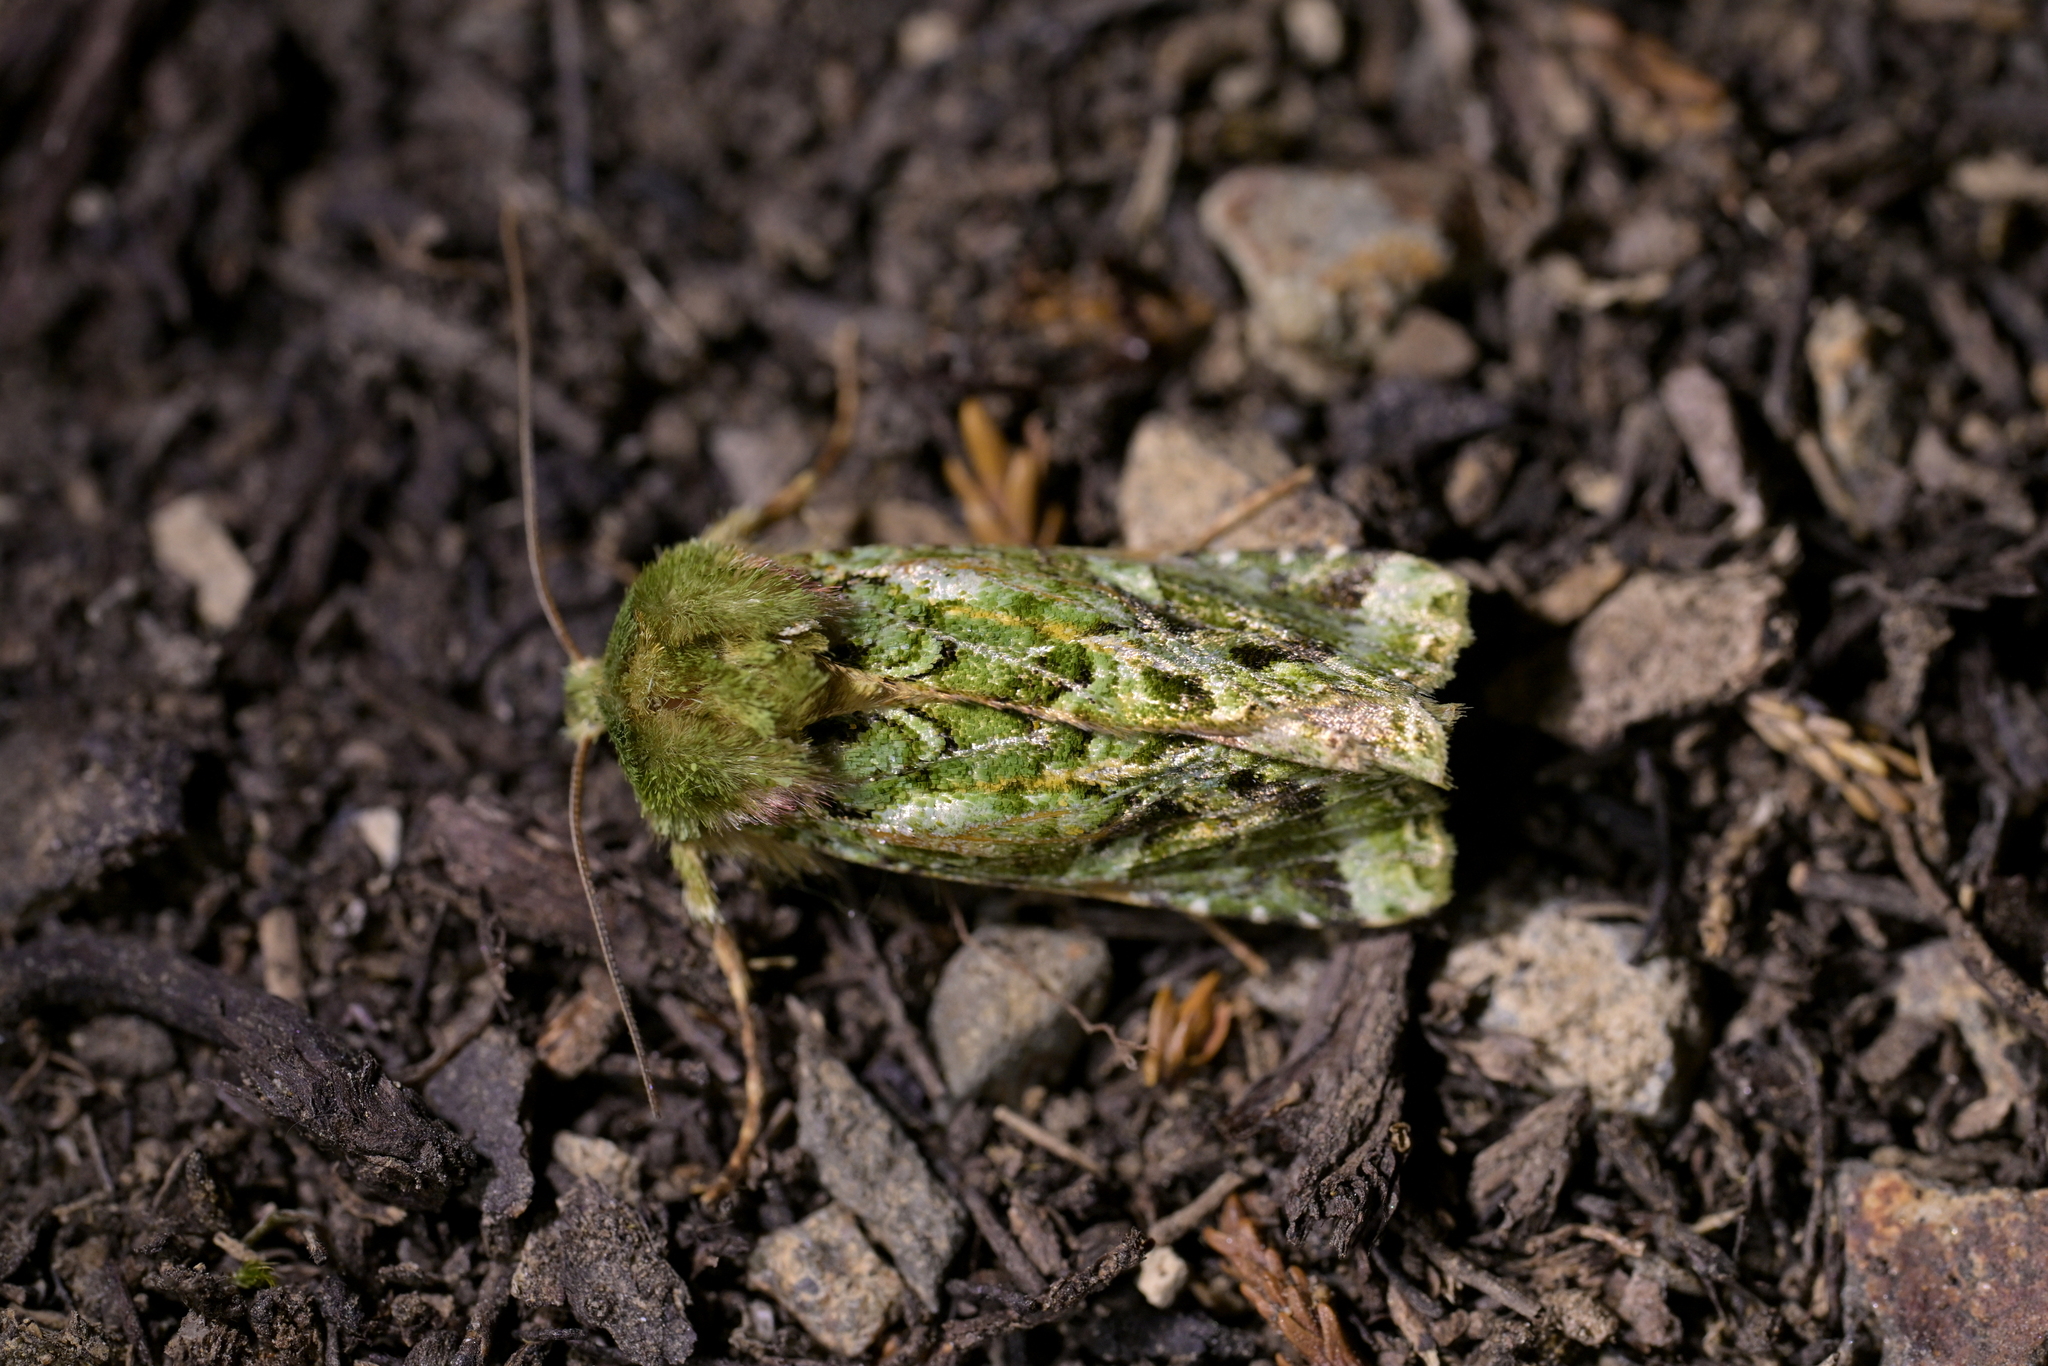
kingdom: Animalia
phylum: Arthropoda
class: Insecta
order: Lepidoptera
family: Noctuidae
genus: Feredayia
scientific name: Feredayia grammosa
